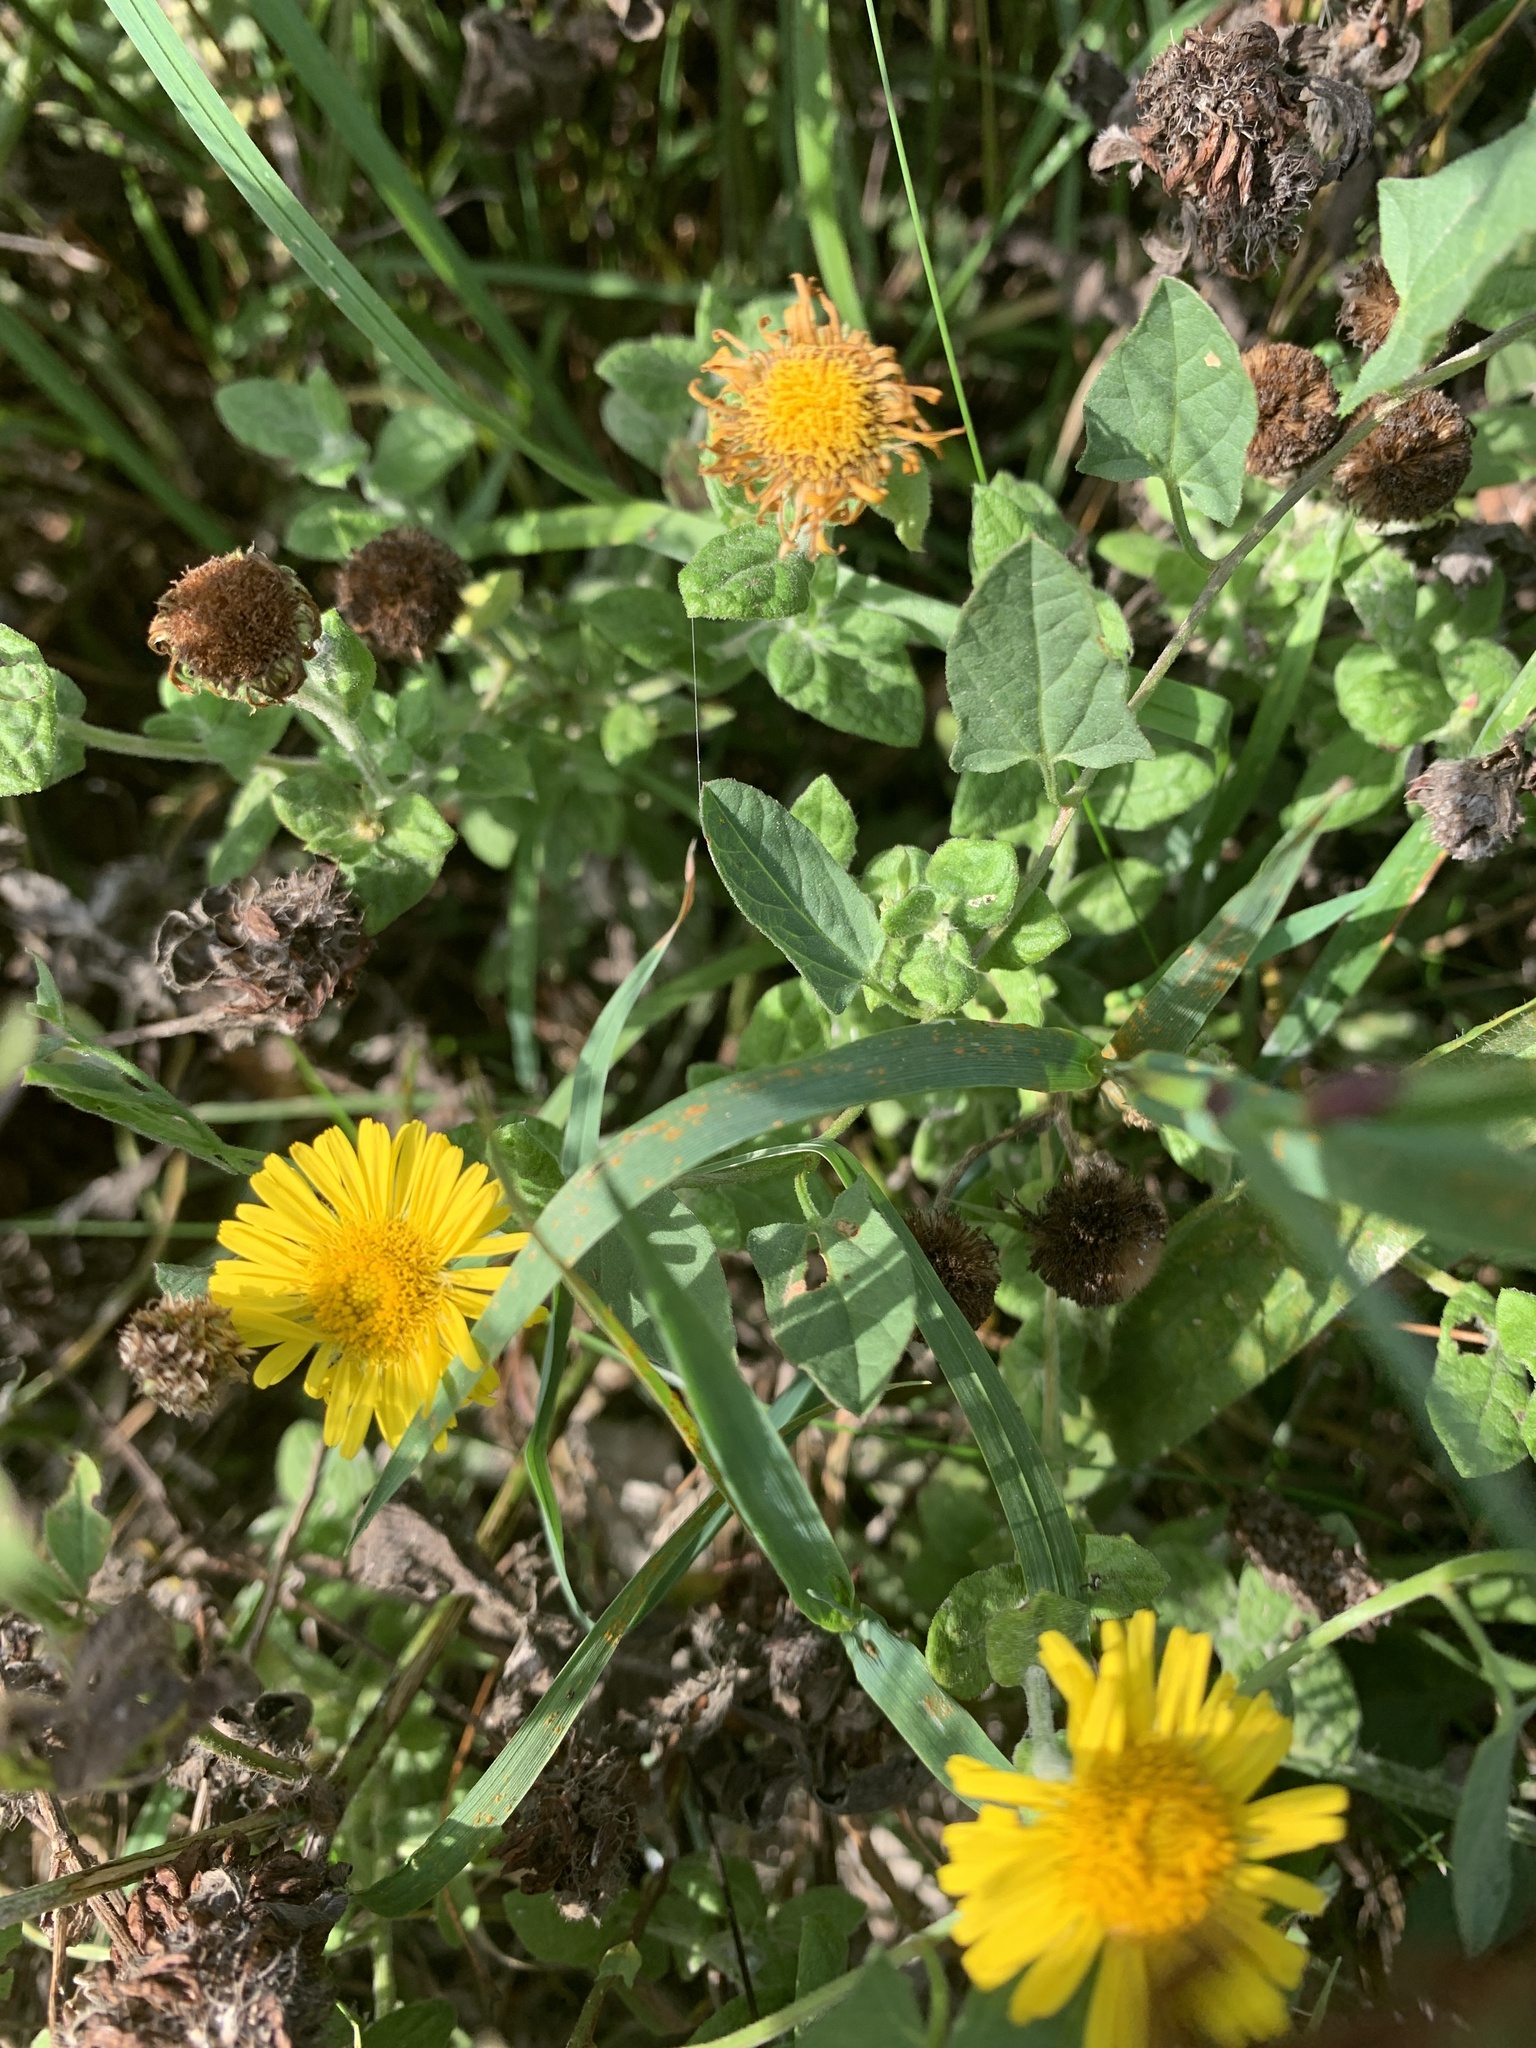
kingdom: Plantae
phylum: Tracheophyta
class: Magnoliopsida
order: Asterales
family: Asteraceae
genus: Pulicaria
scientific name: Pulicaria dysenterica
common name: Common fleabane
